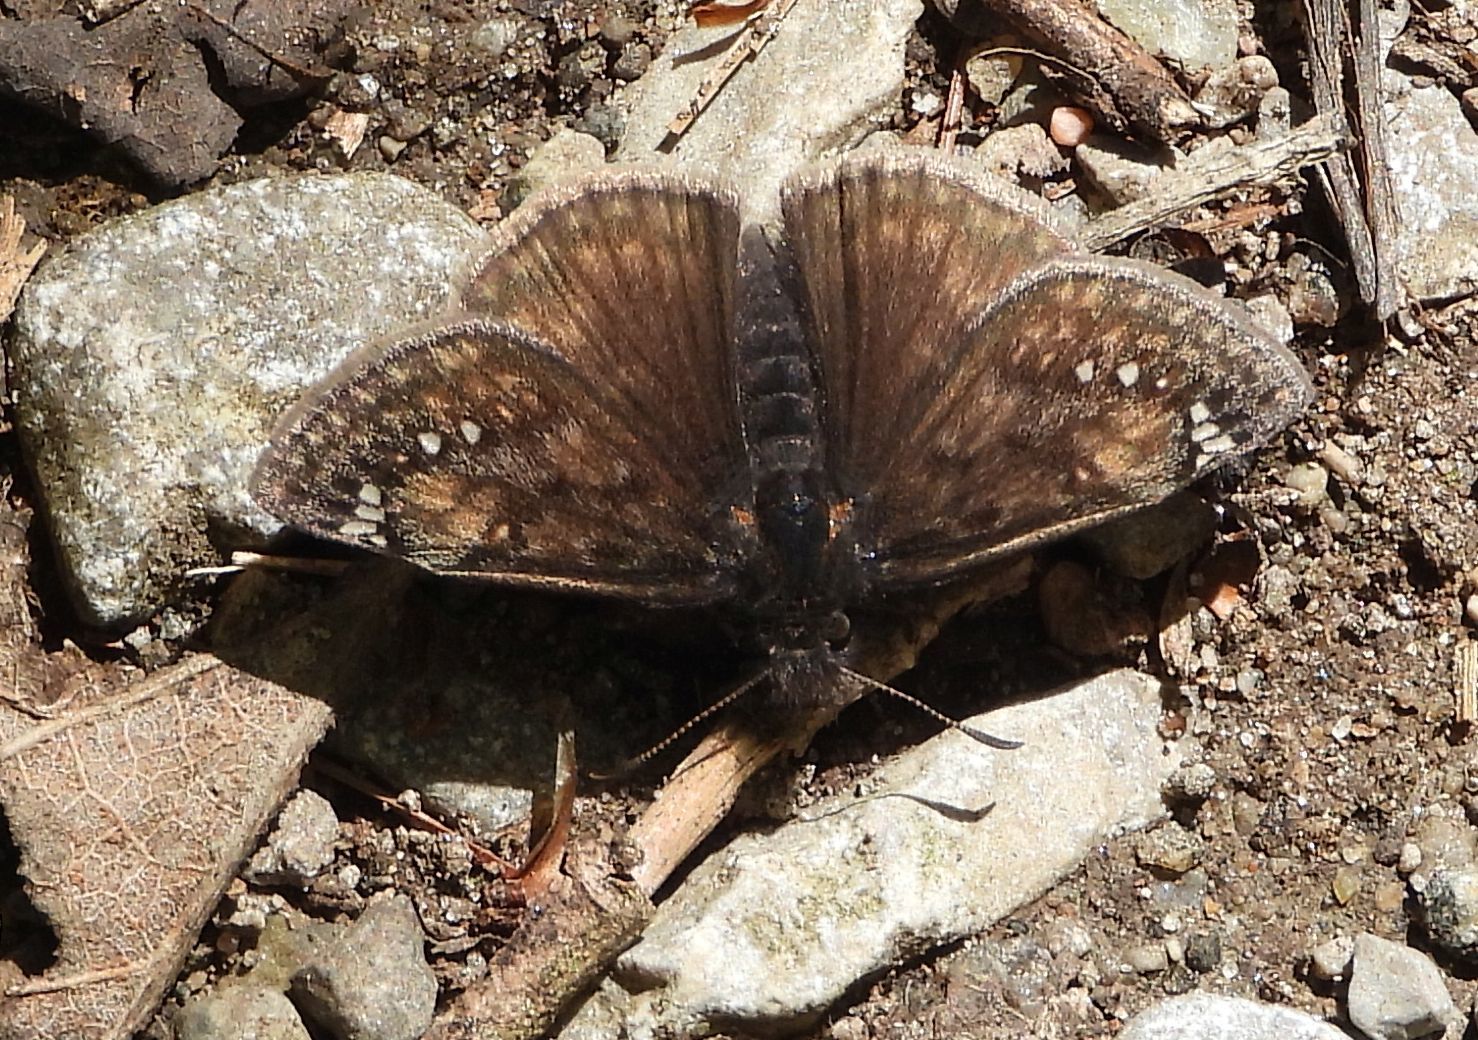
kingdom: Animalia
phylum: Arthropoda
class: Insecta
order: Lepidoptera
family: Hesperiidae
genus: Erynnis
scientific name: Erynnis juvenalis
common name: Juvenal's duskywing
